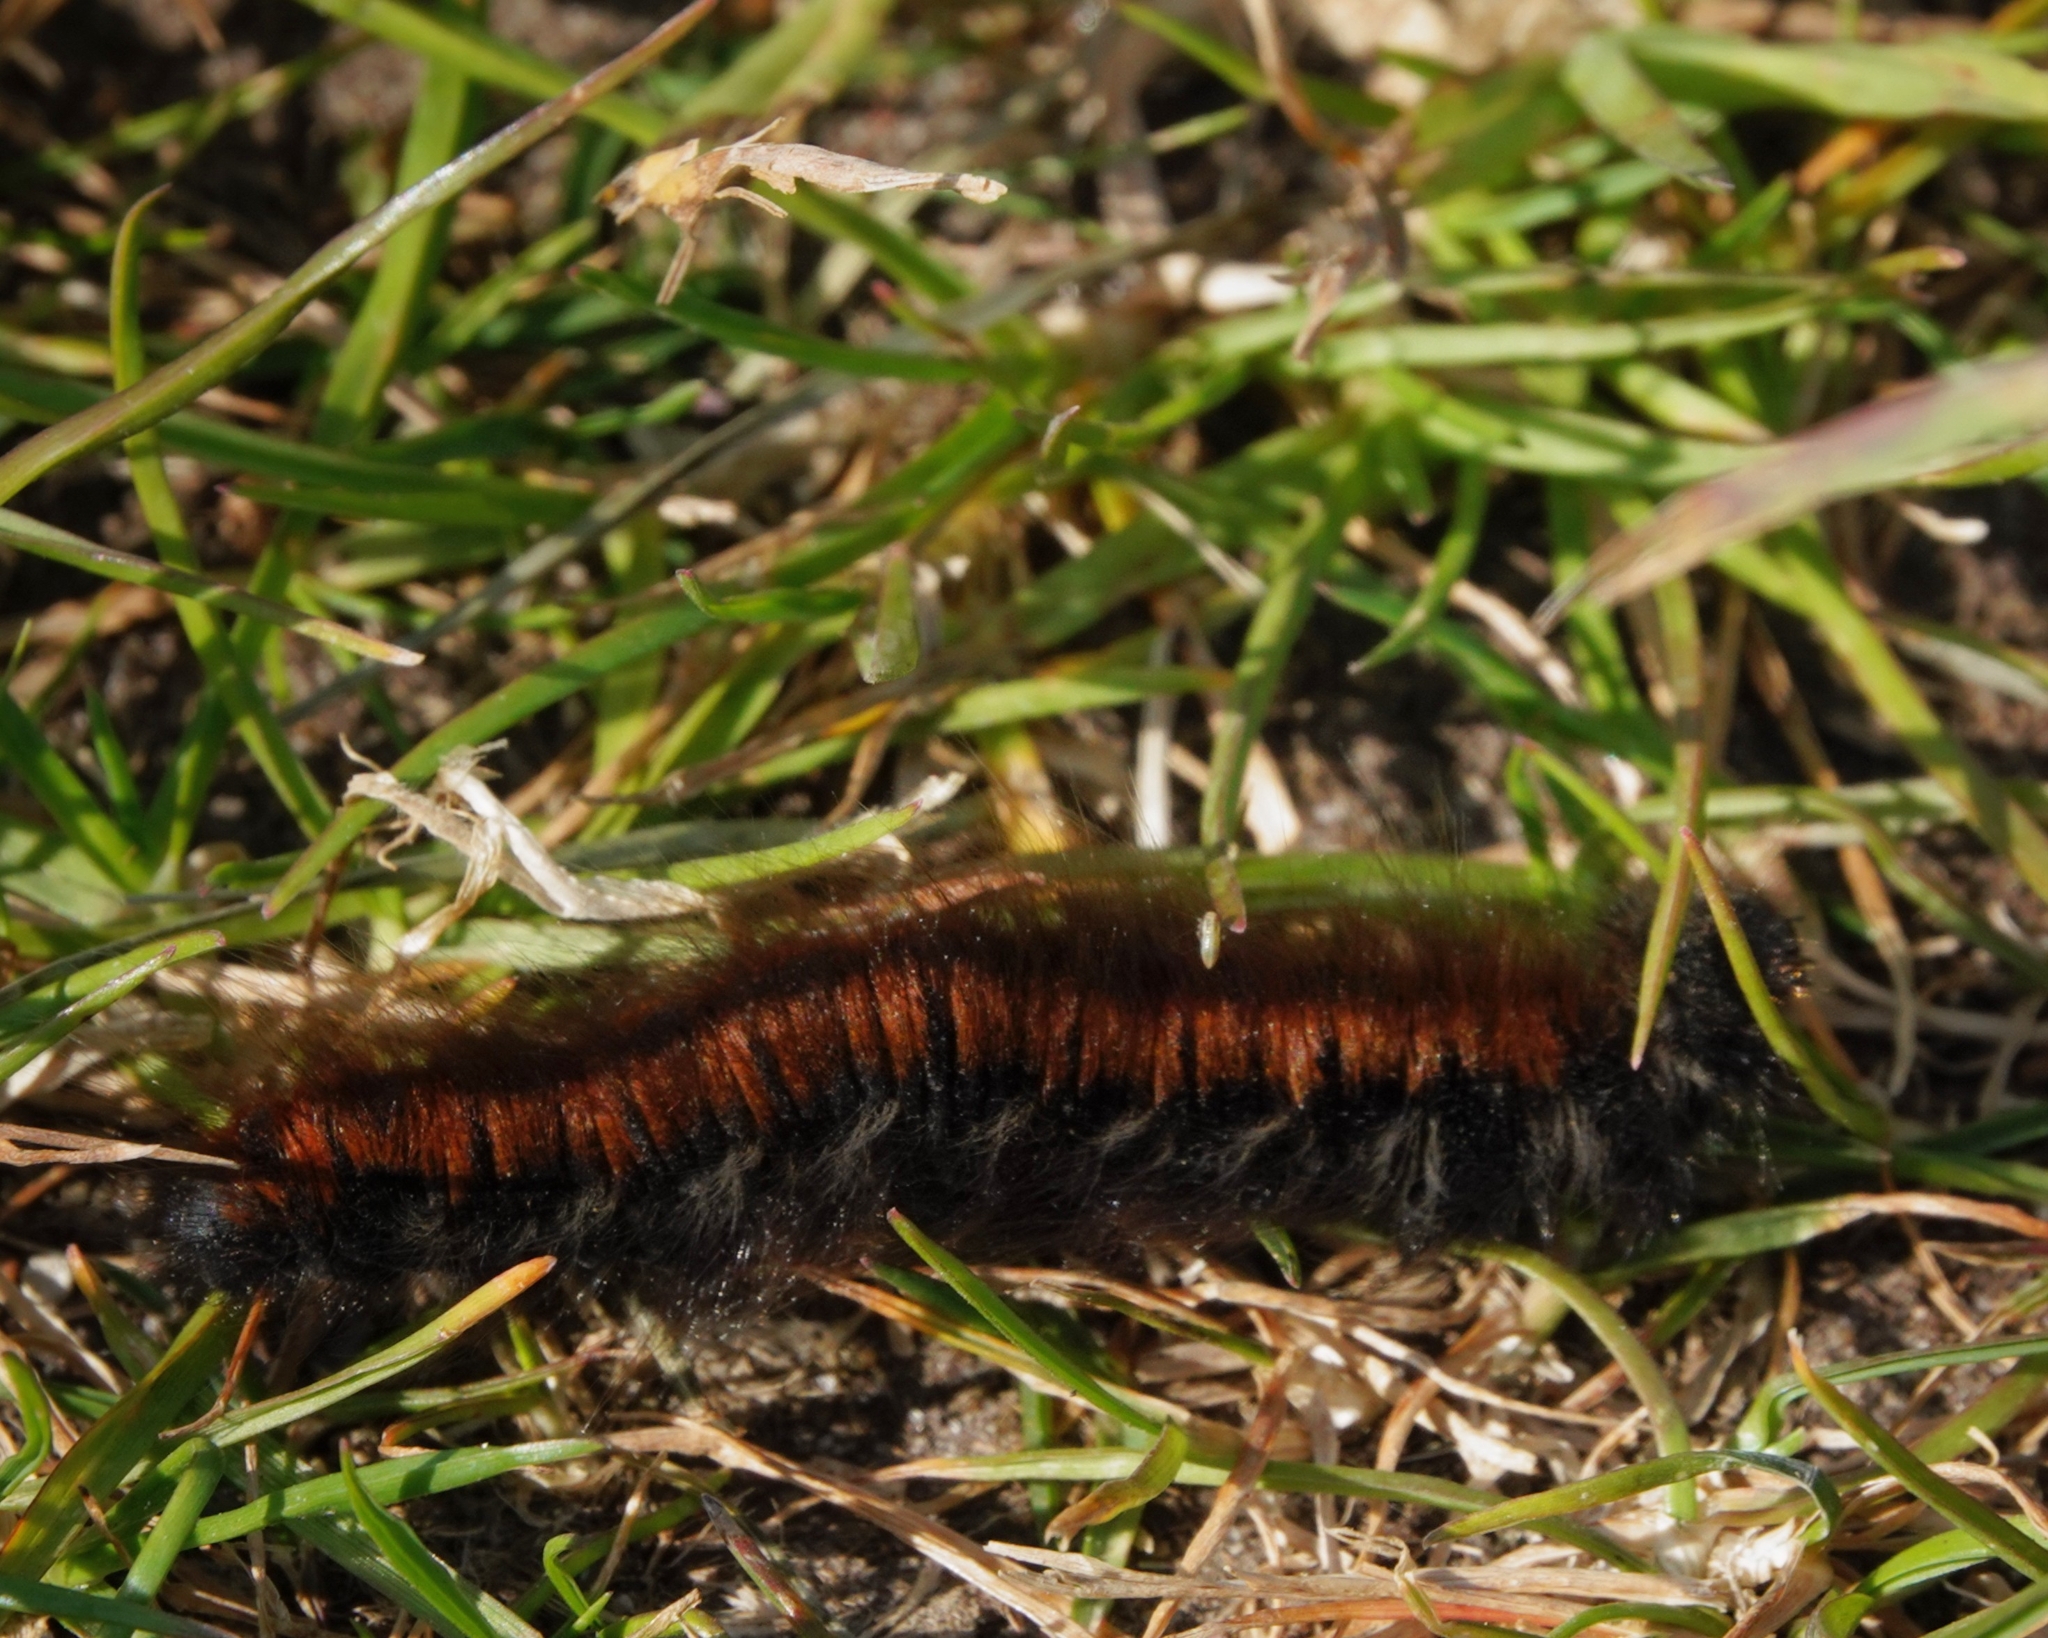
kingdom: Animalia
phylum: Arthropoda
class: Insecta
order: Lepidoptera
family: Lasiocampidae
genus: Macrothylacia
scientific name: Macrothylacia rubi
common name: Fox moth
